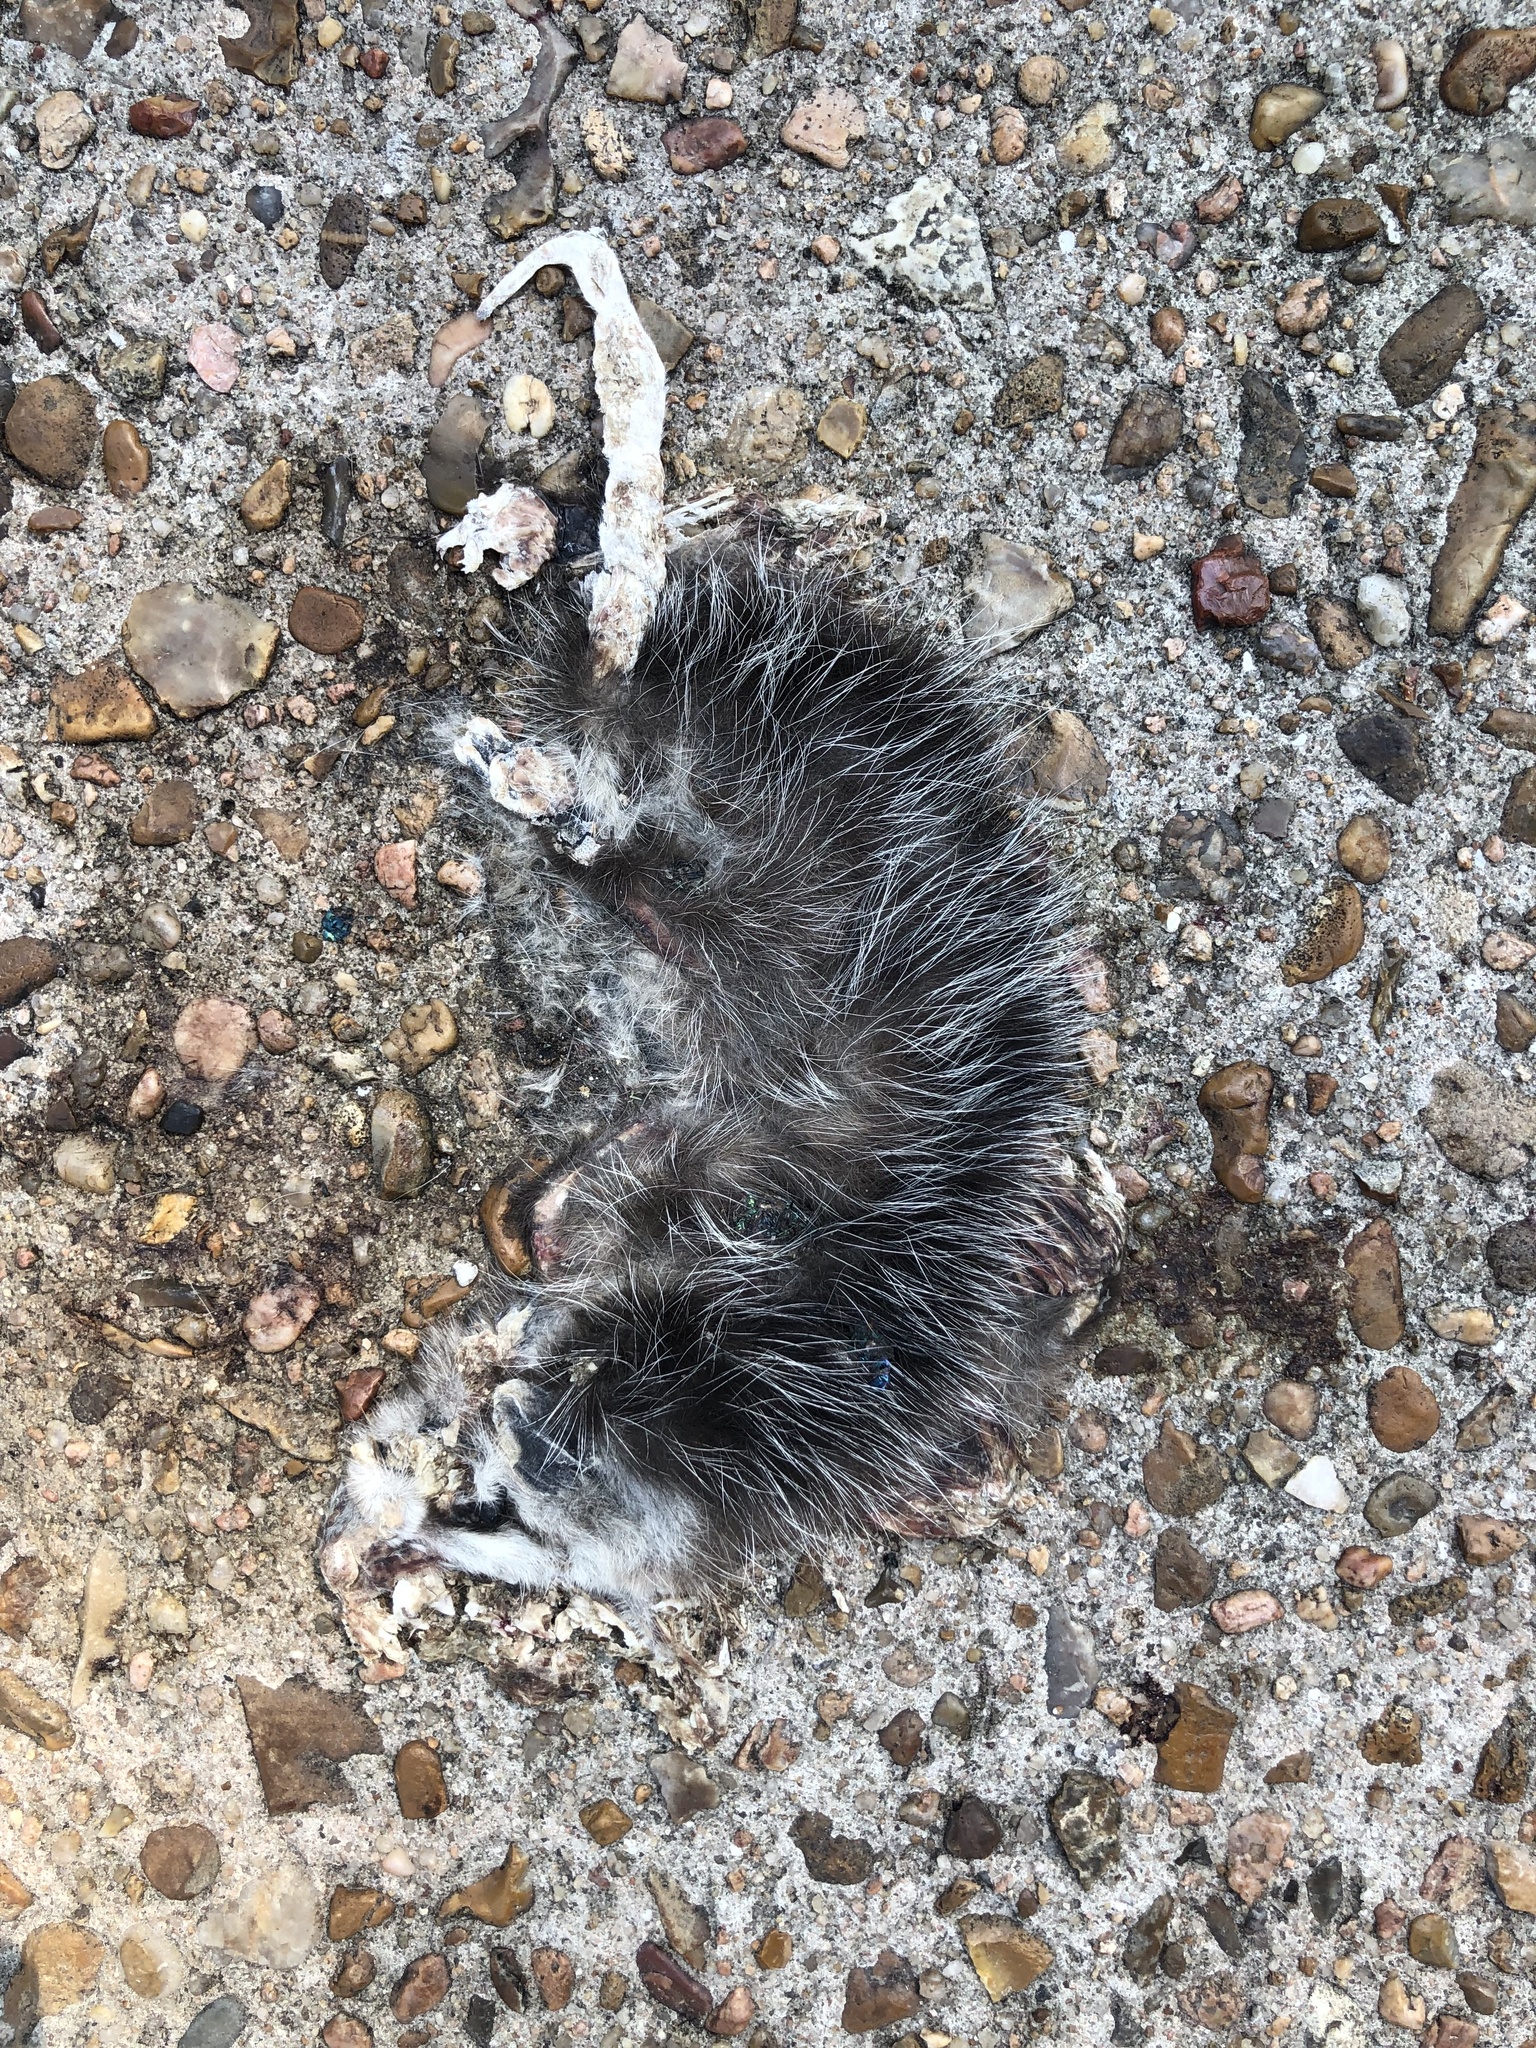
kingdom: Animalia
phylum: Chordata
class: Mammalia
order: Didelphimorphia
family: Didelphidae
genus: Didelphis
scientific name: Didelphis virginiana
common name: Virginia opossum
